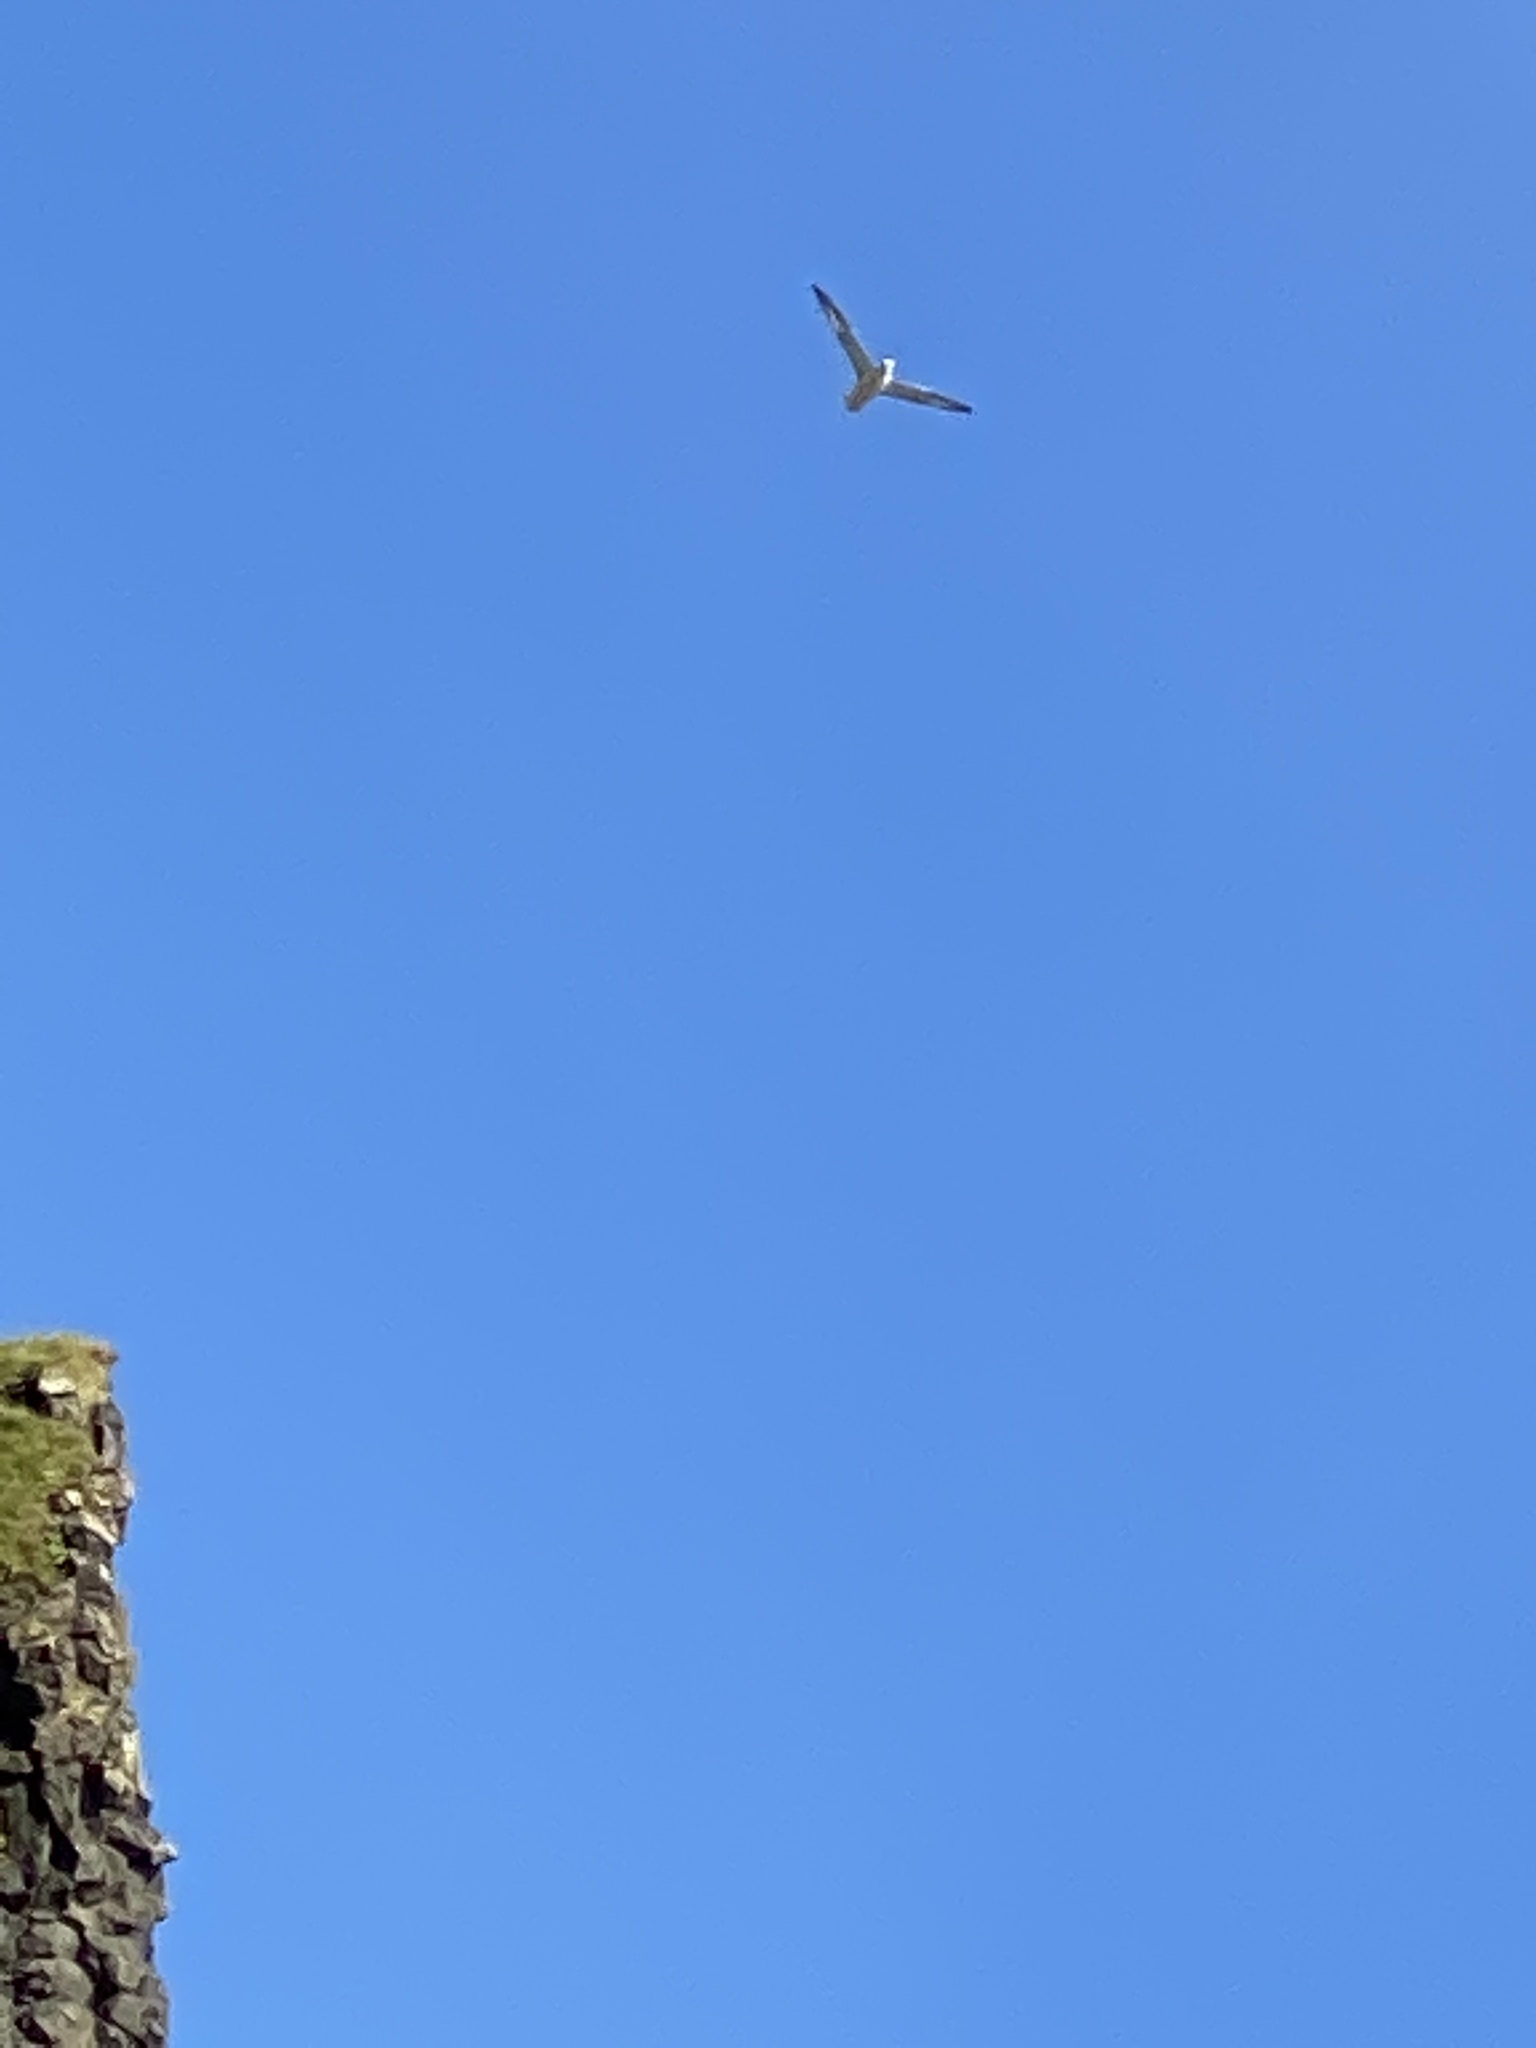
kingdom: Animalia
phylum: Chordata
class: Aves
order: Procellariiformes
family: Procellariidae
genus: Fulmarus
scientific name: Fulmarus glacialis
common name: Northern fulmar
